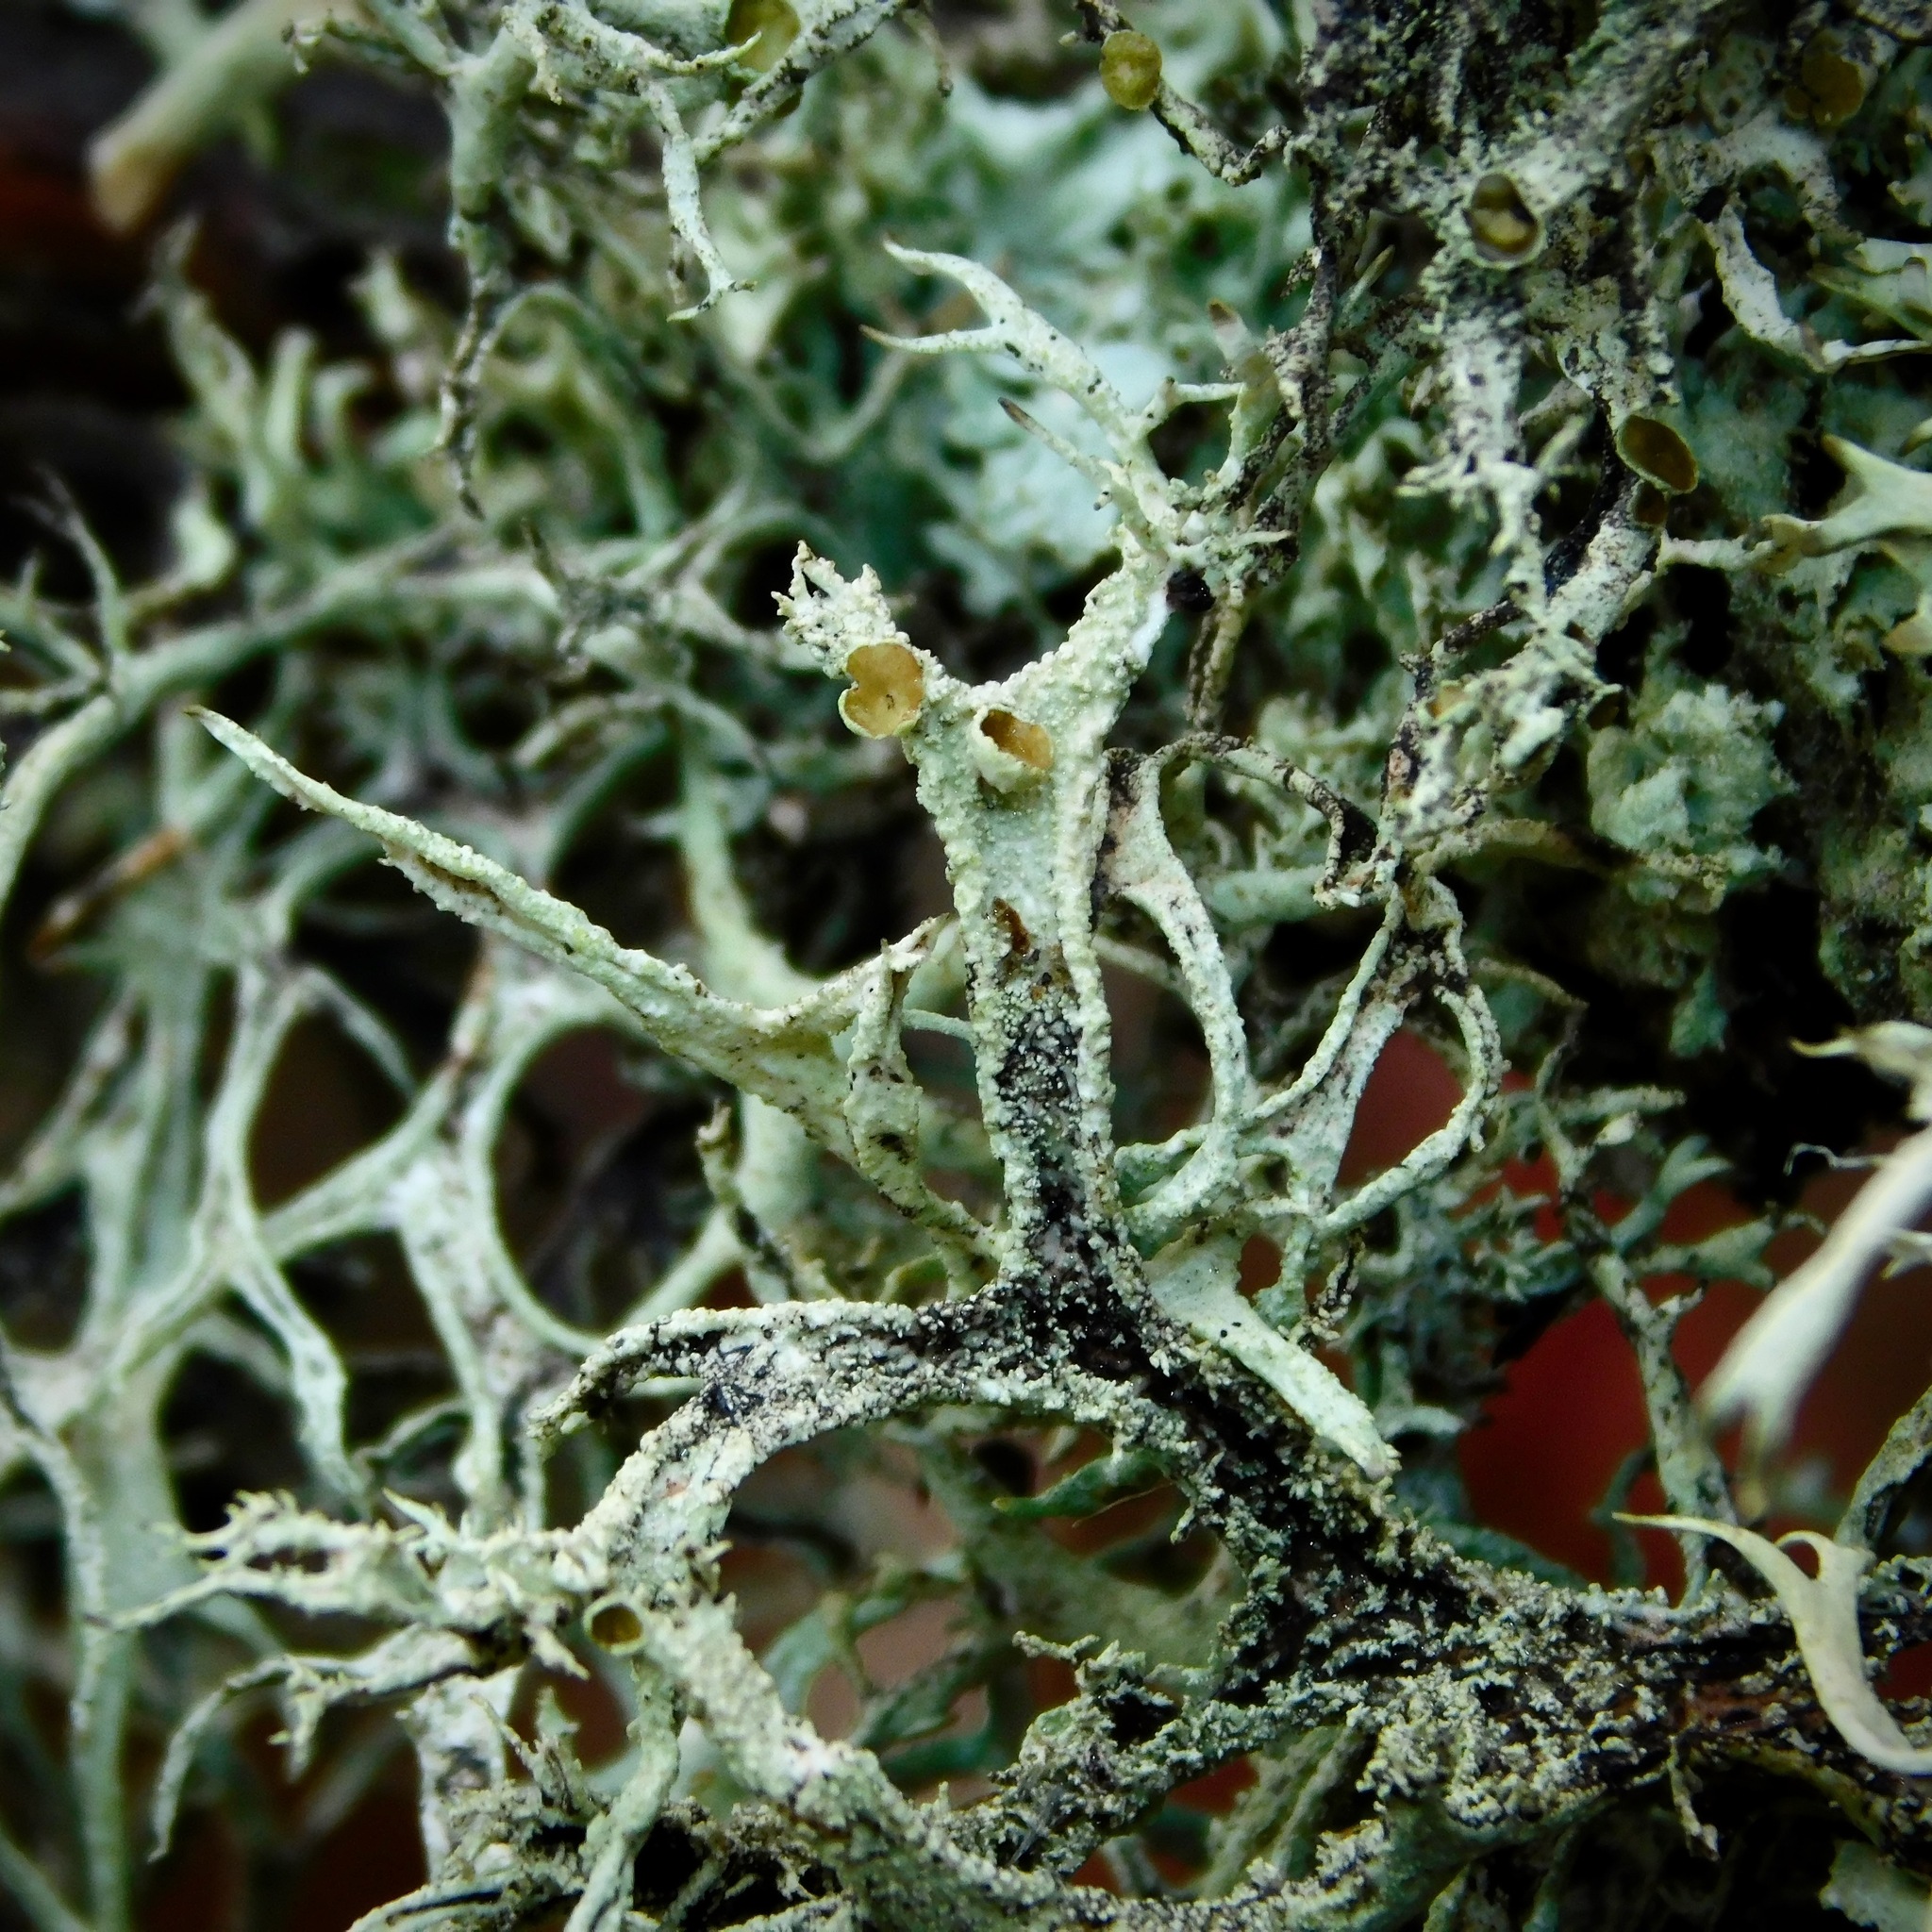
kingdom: Fungi
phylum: Ascomycota
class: Lecanoromycetes
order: Lecanorales
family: Parmeliaceae
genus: Pseudevernia
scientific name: Pseudevernia consocians
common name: Common antler lichen
